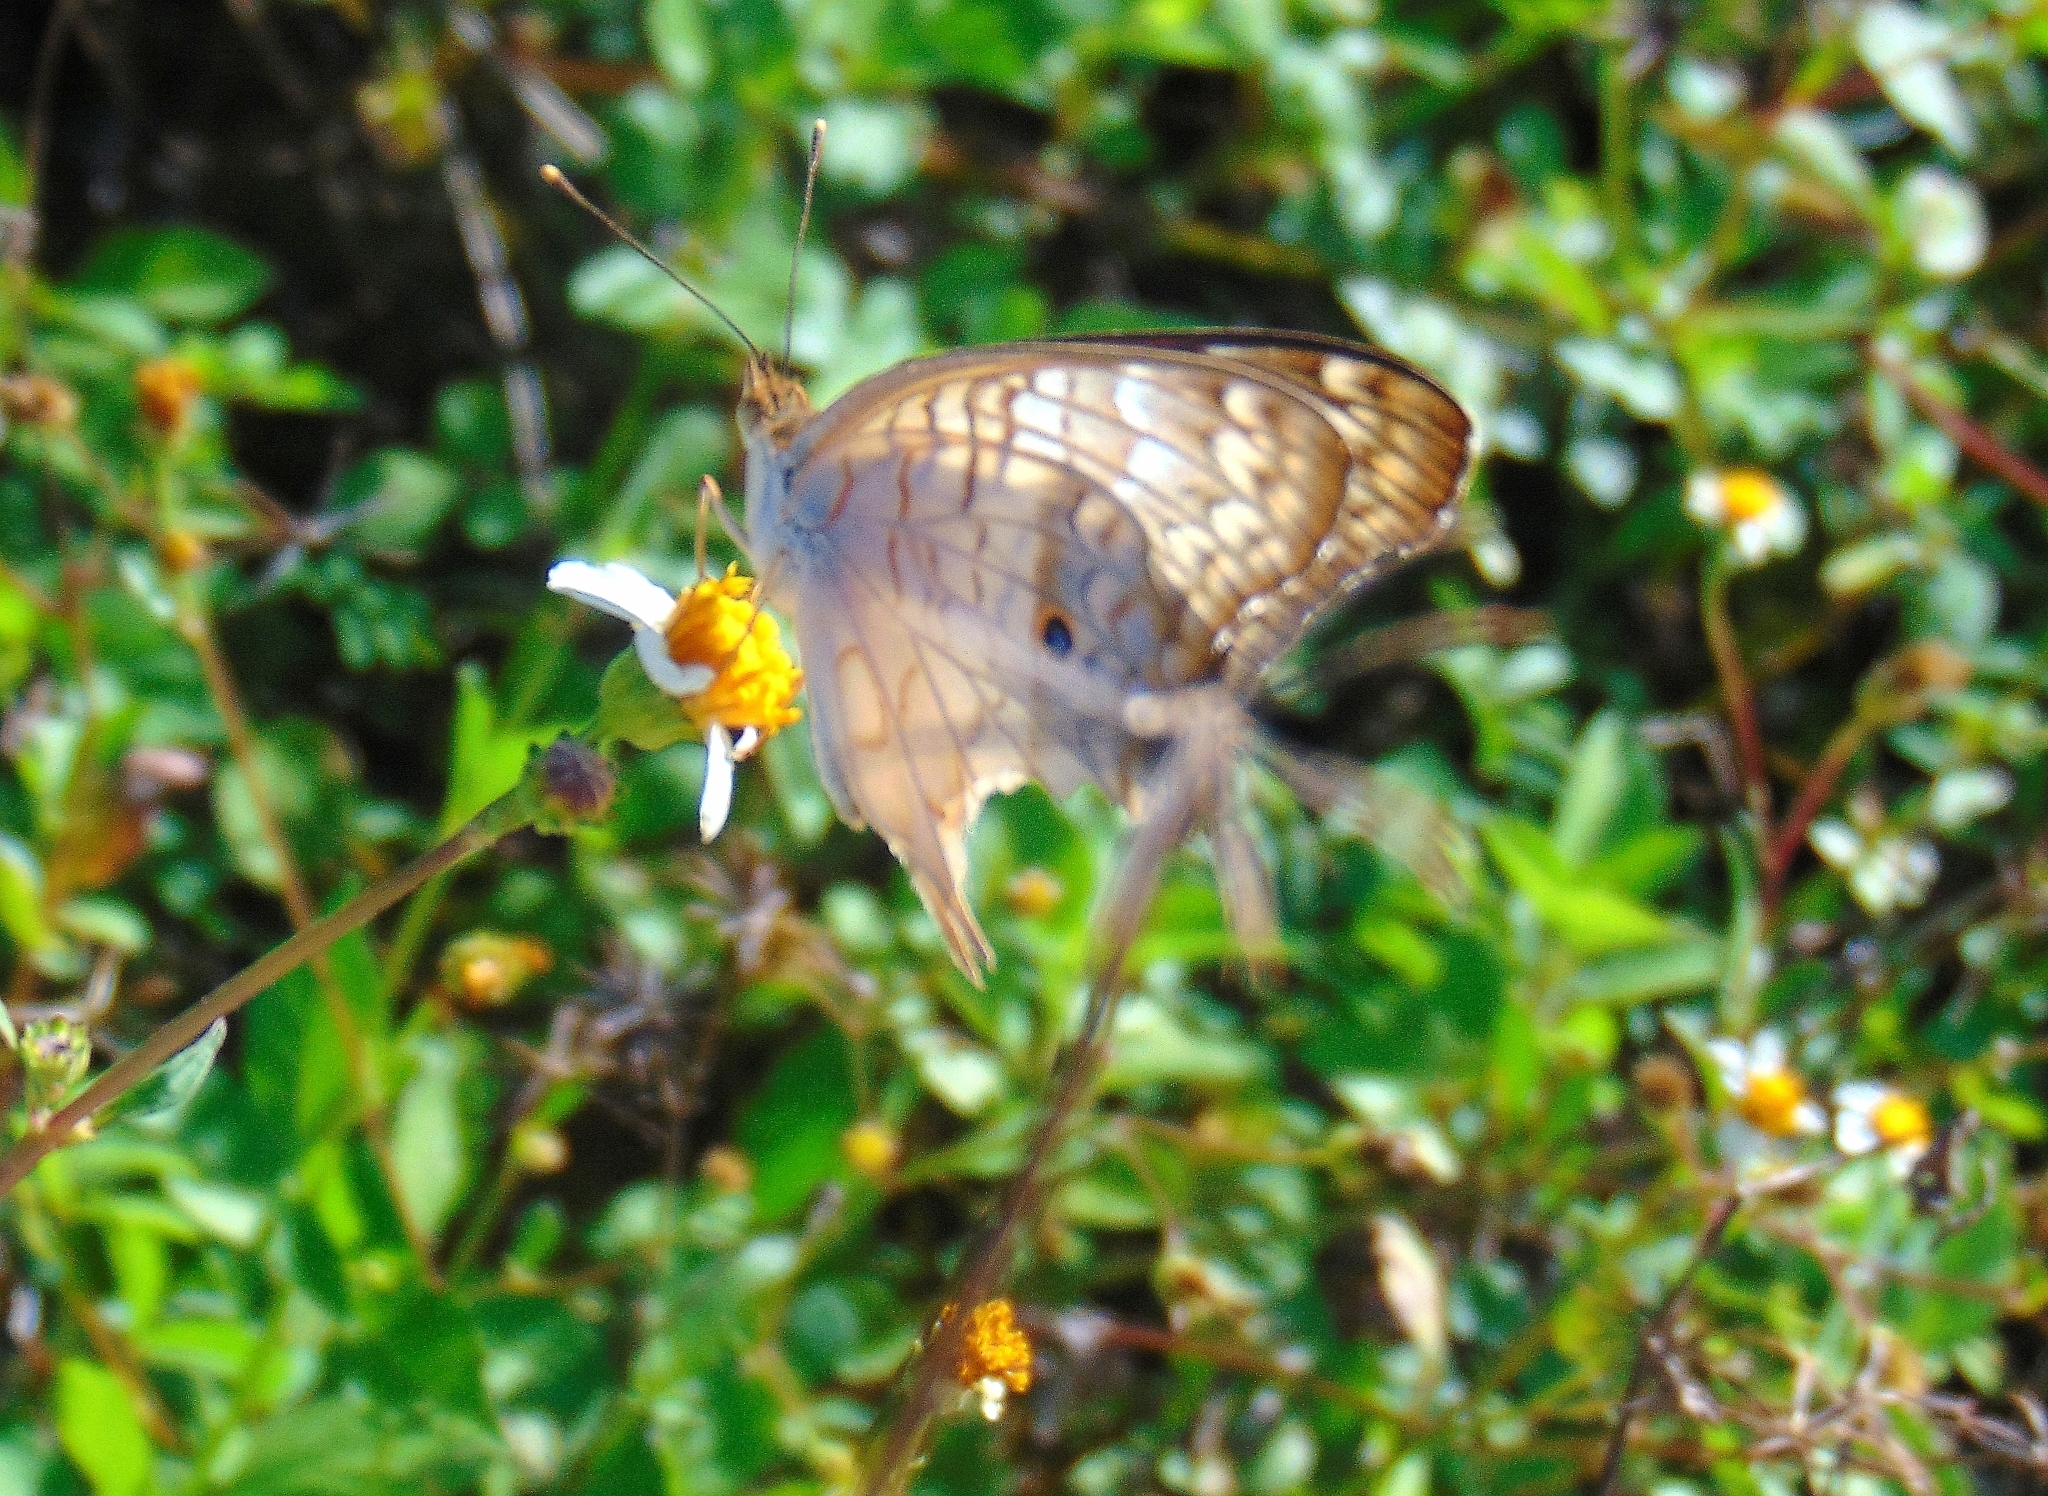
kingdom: Animalia
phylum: Arthropoda
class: Insecta
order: Lepidoptera
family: Nymphalidae
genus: Anartia
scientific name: Anartia jatrophae
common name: White peacock
